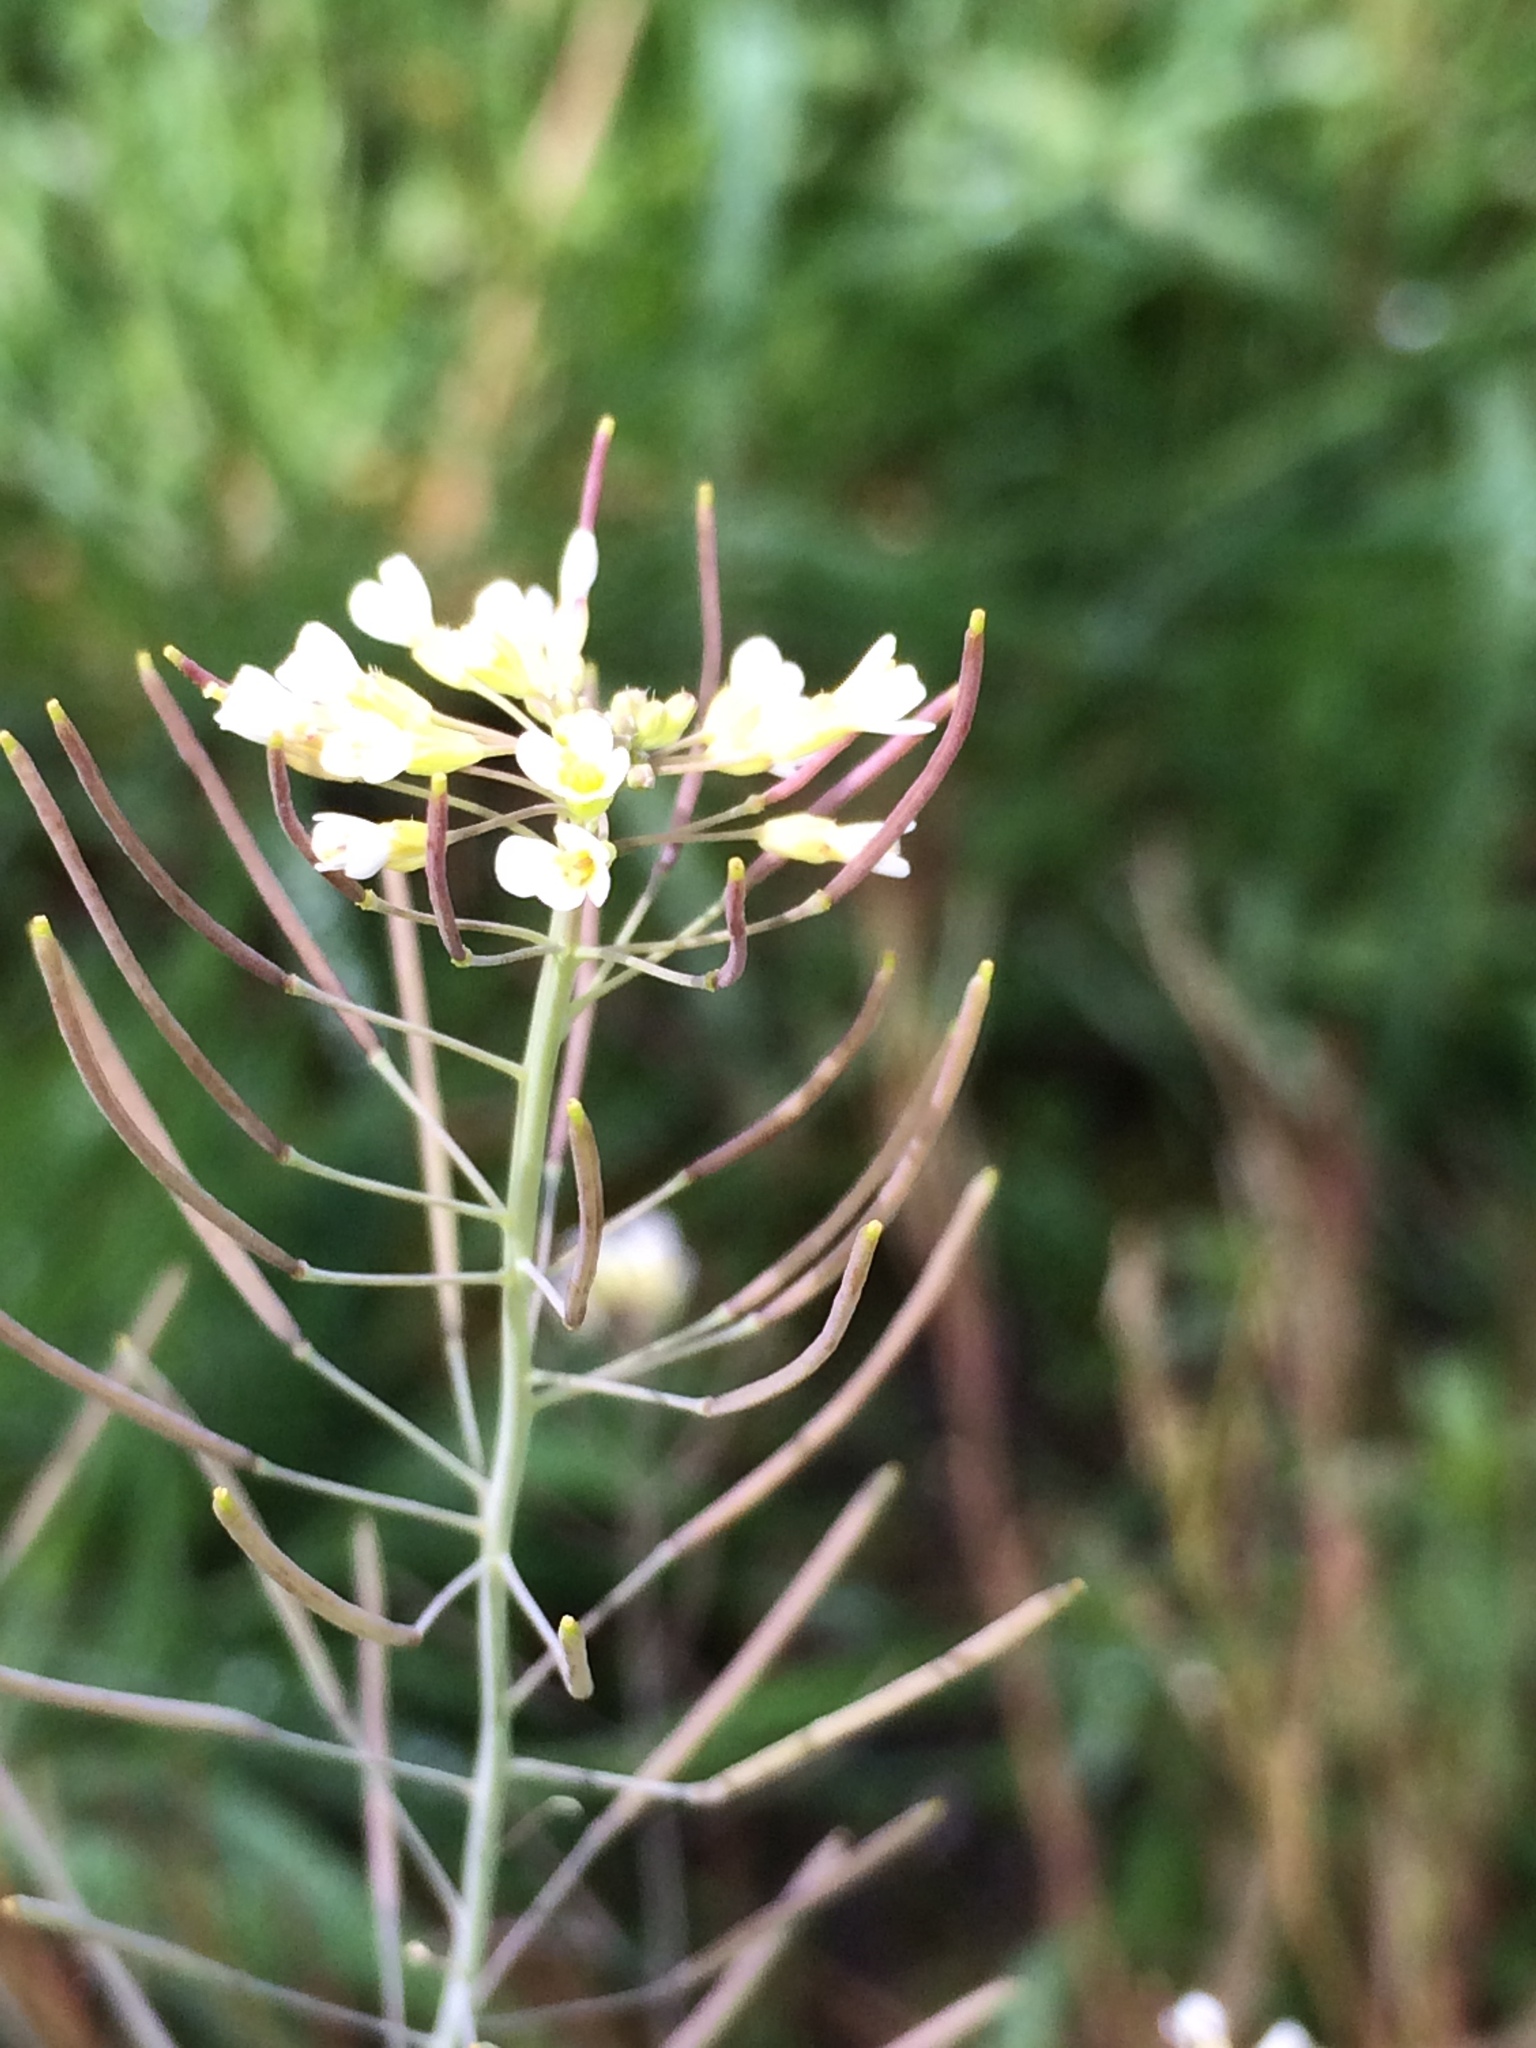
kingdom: Plantae
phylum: Tracheophyta
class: Magnoliopsida
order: Brassicales
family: Brassicaceae
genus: Capsella
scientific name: Capsella bursa-pastoris
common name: Shepherd's purse
